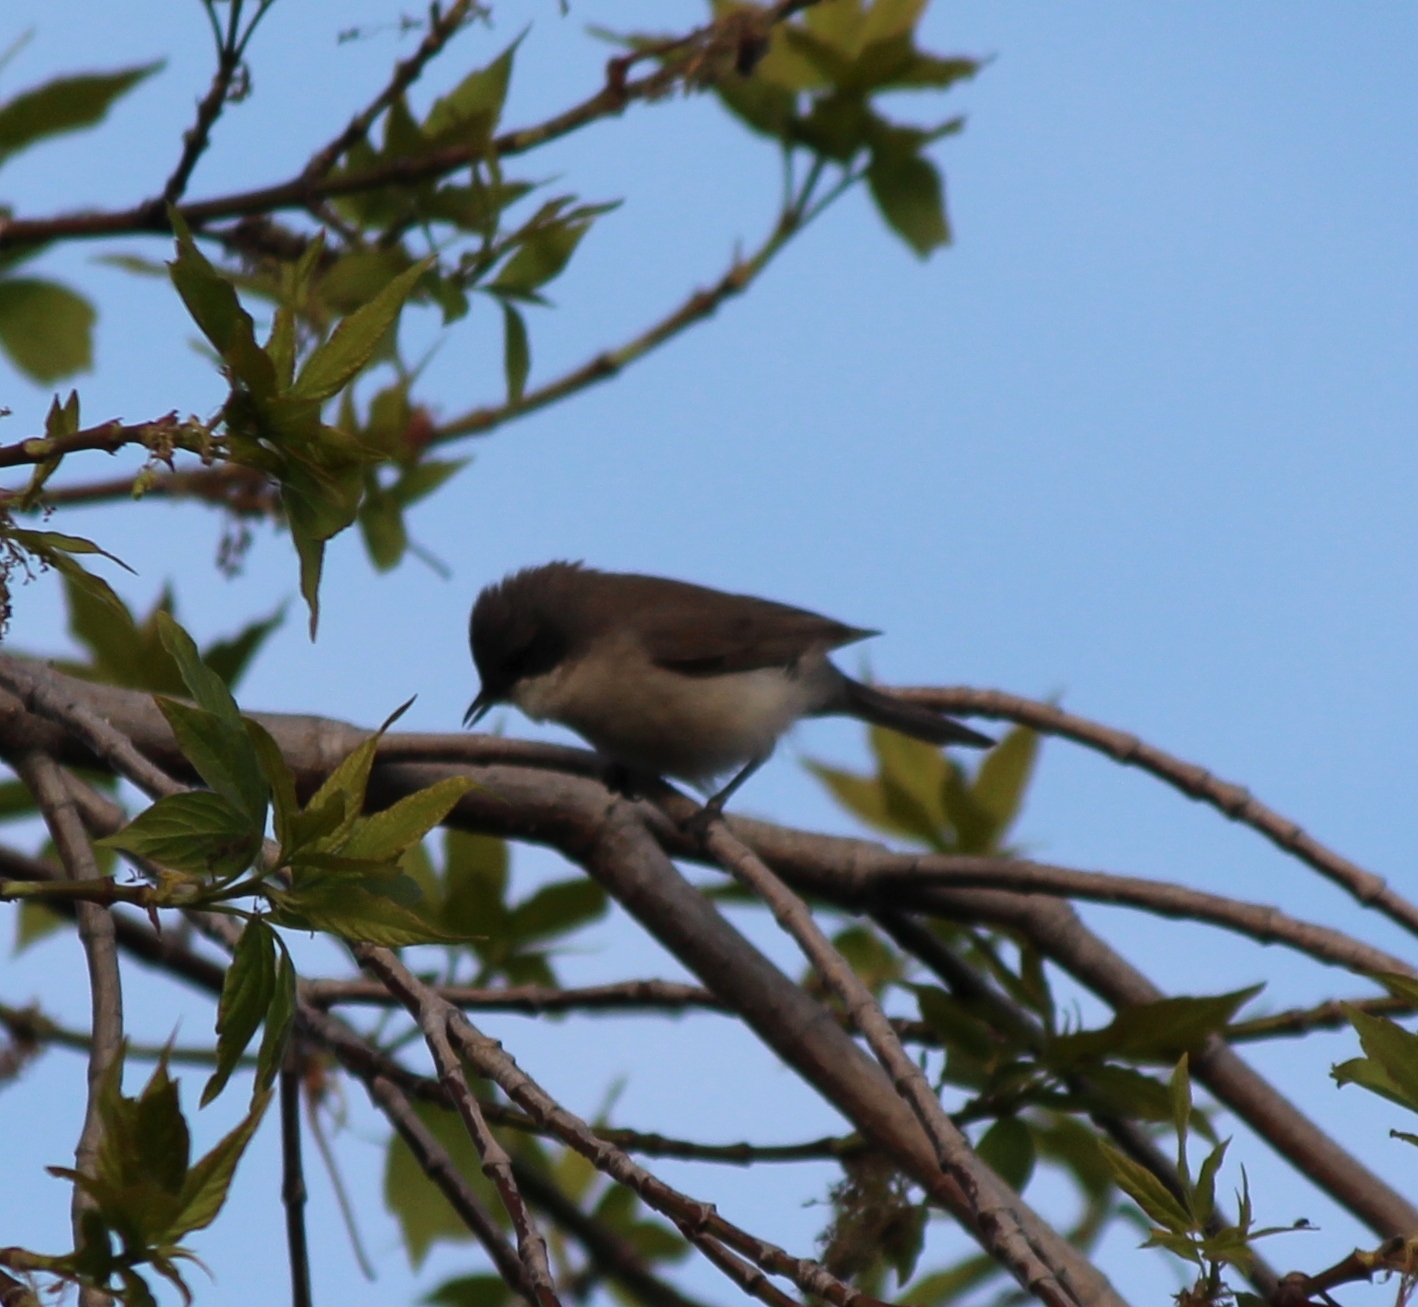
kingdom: Animalia
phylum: Chordata
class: Aves
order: Passeriformes
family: Sylviidae
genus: Sylvia
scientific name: Sylvia curruca
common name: Lesser whitethroat
